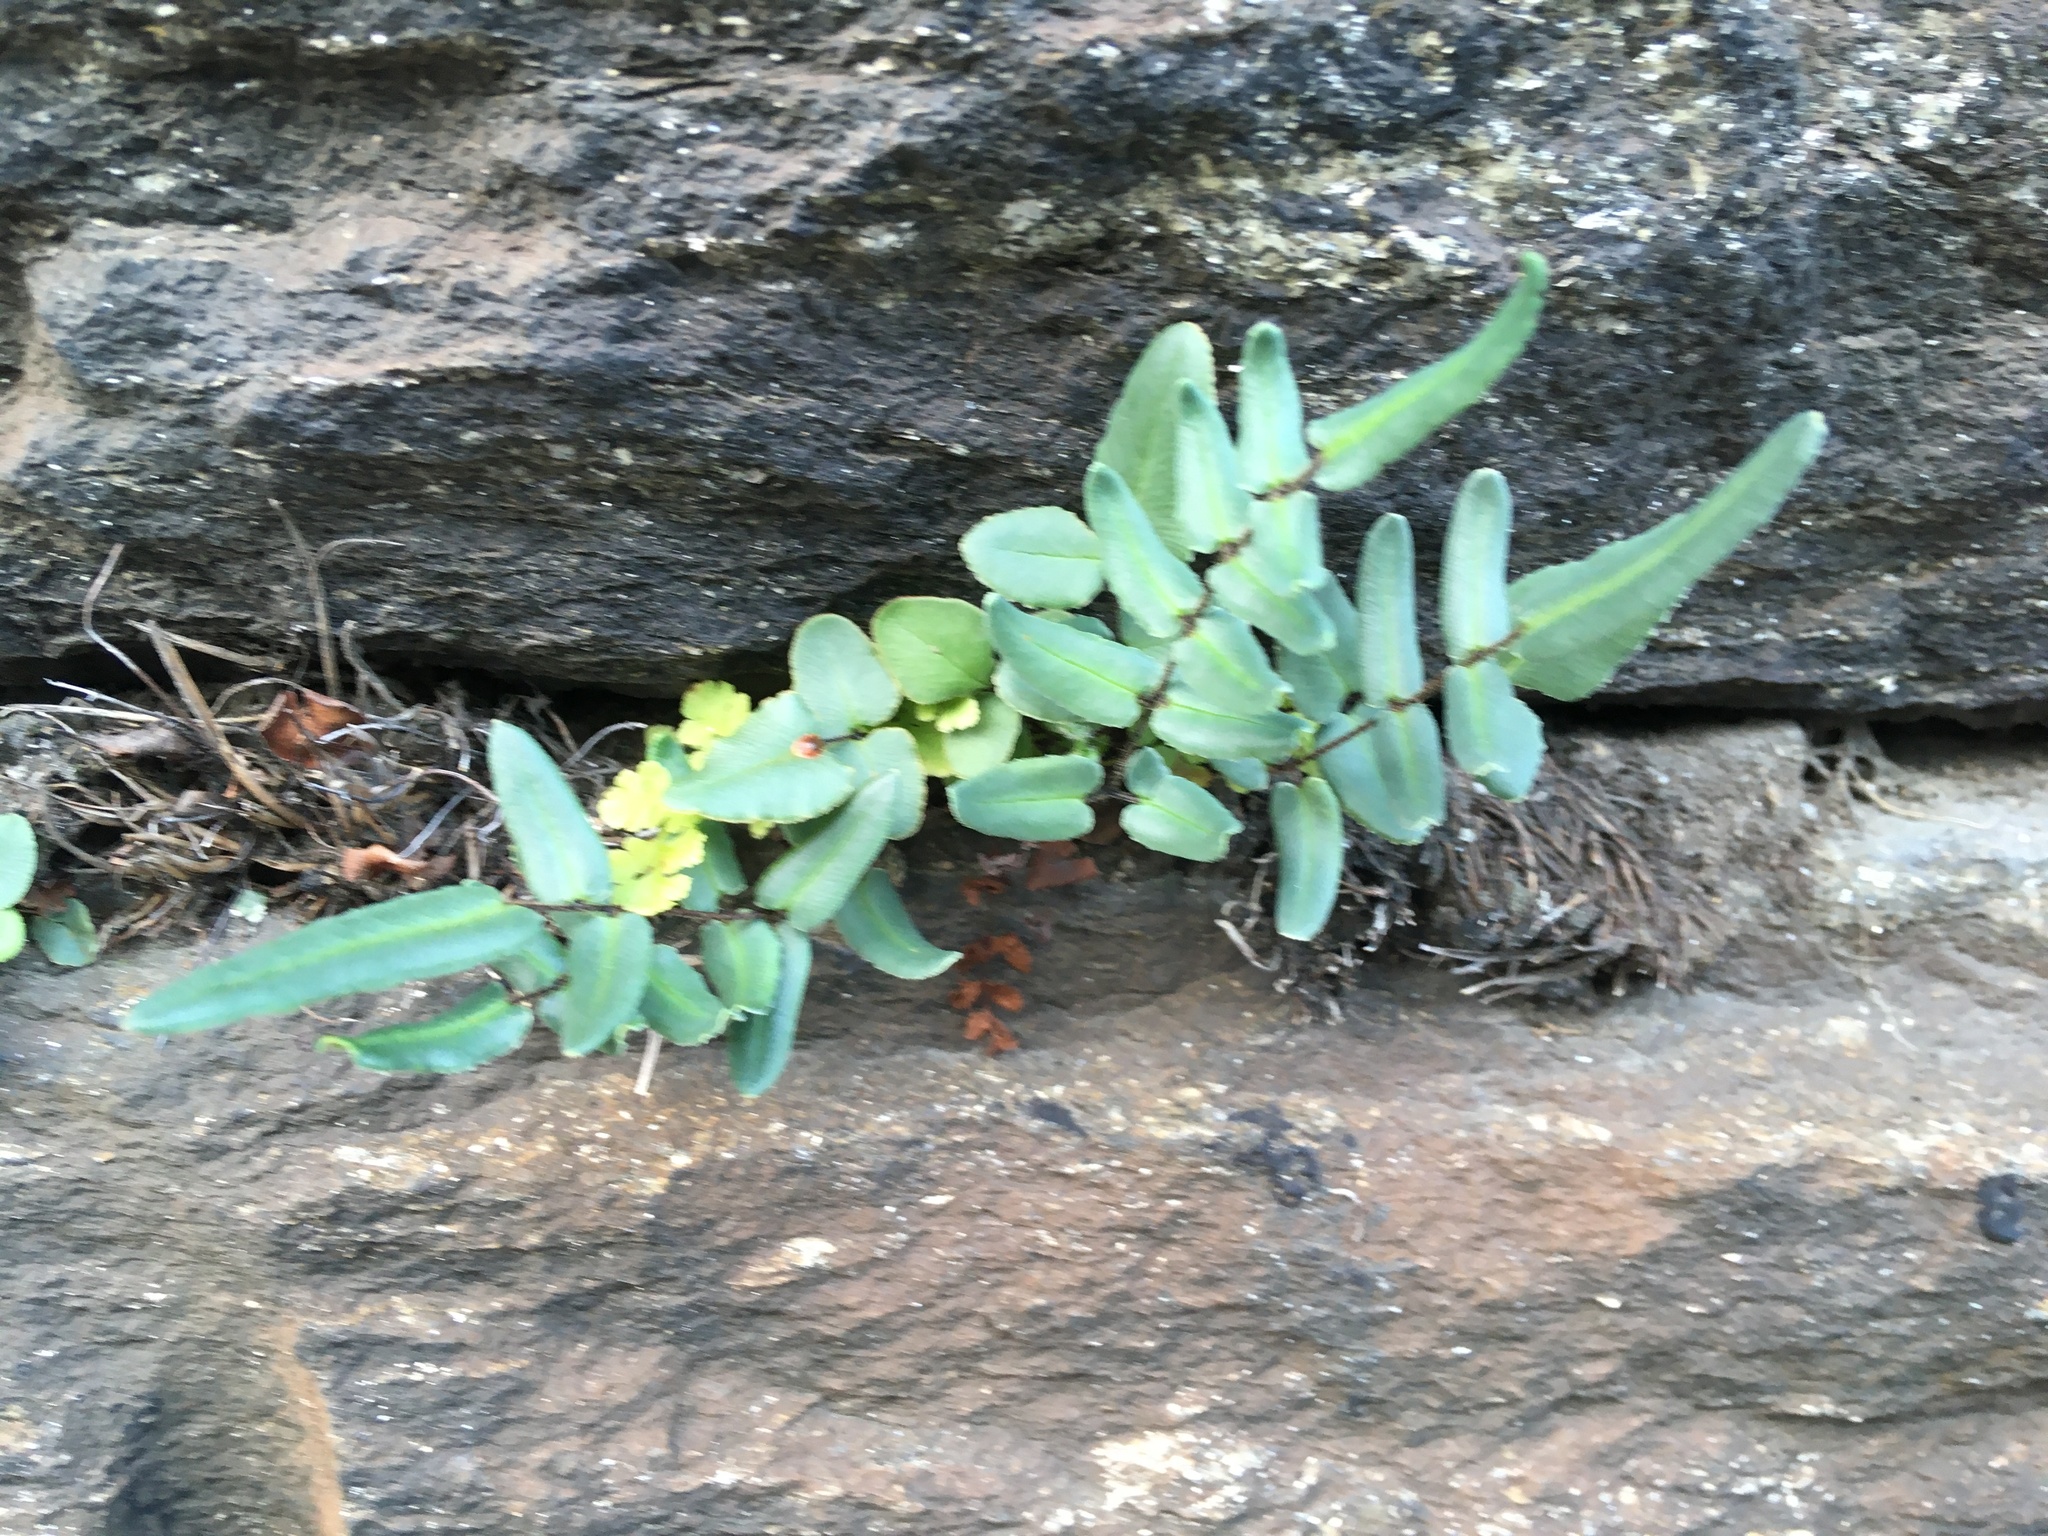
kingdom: Plantae
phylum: Tracheophyta
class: Polypodiopsida
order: Polypodiales
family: Pteridaceae
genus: Pellaea
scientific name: Pellaea atropurpurea
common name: Hairy cliffbrake
